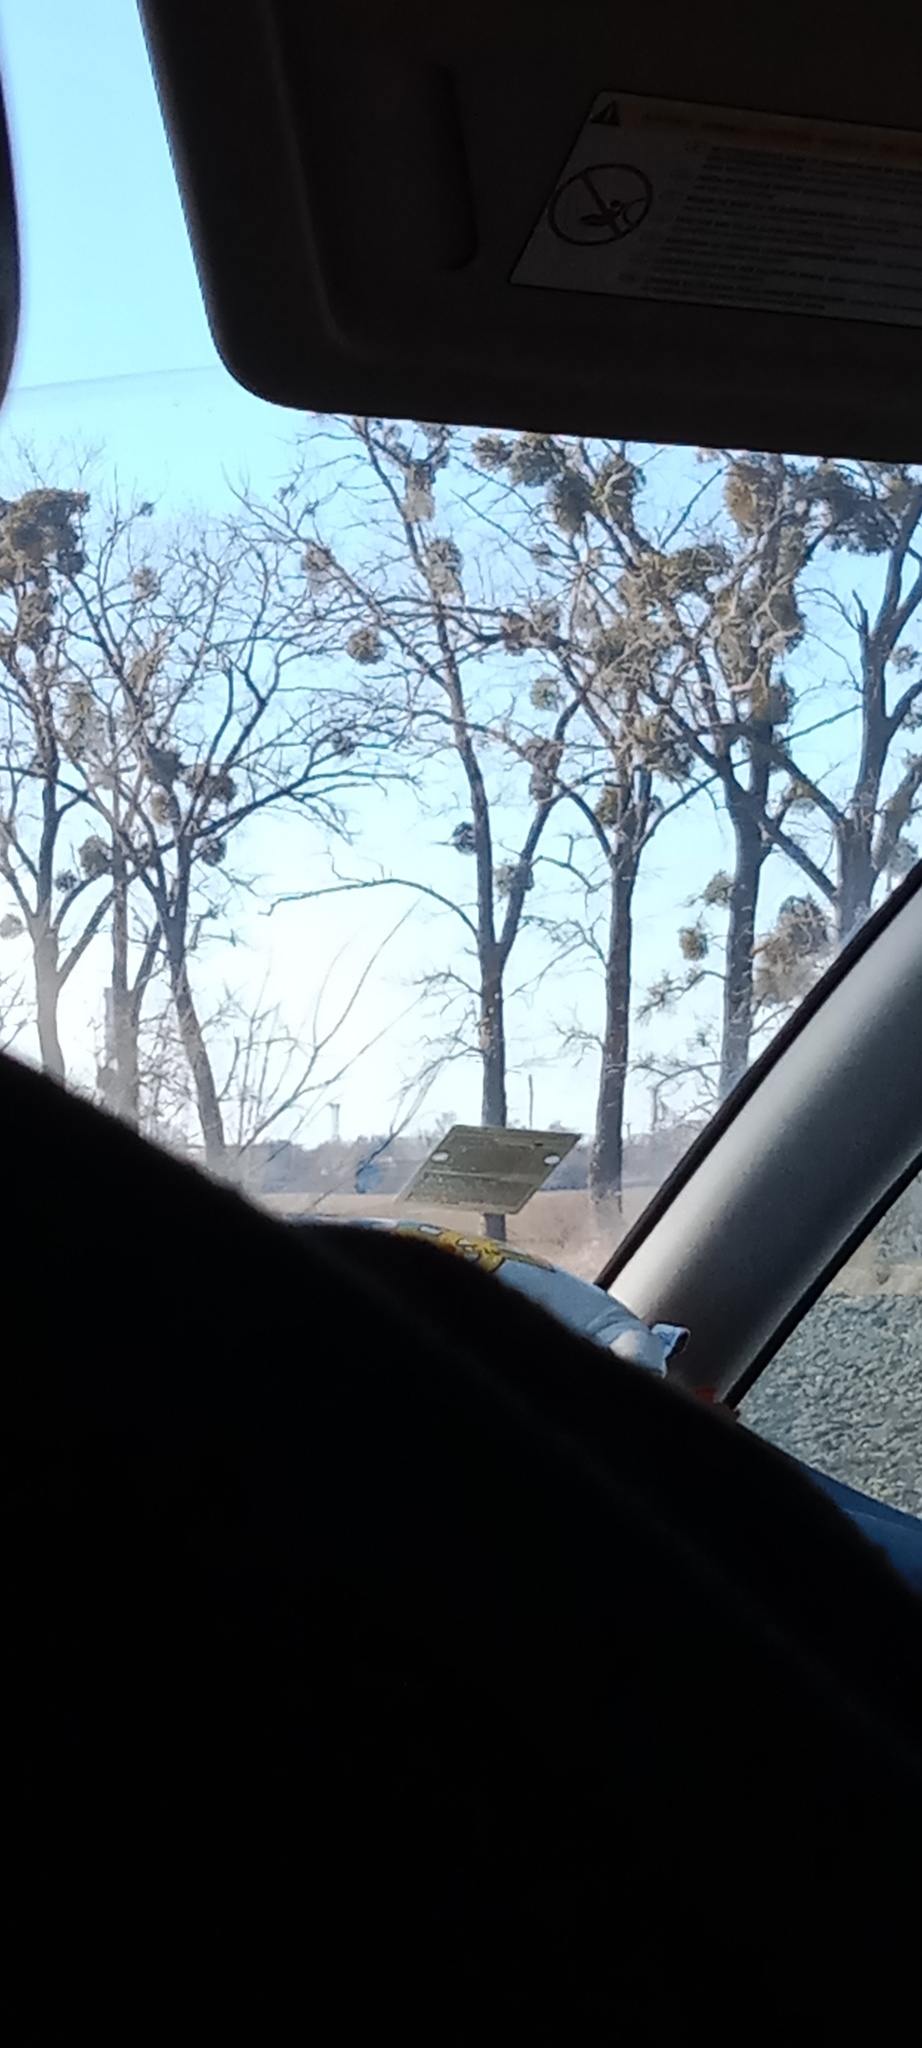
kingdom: Plantae
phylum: Tracheophyta
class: Magnoliopsida
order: Santalales
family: Viscaceae
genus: Viscum
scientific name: Viscum album
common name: Mistletoe
